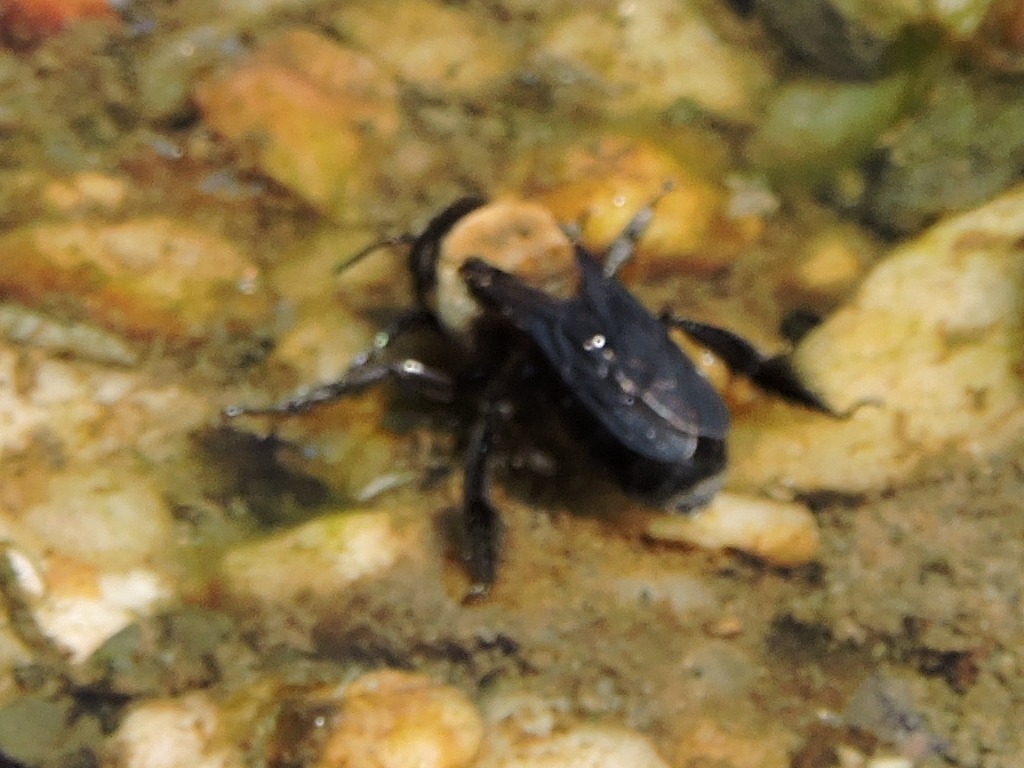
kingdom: Animalia
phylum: Arthropoda
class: Insecta
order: Hymenoptera
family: Apidae
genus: Ptilothrix
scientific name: Ptilothrix bombiformis
